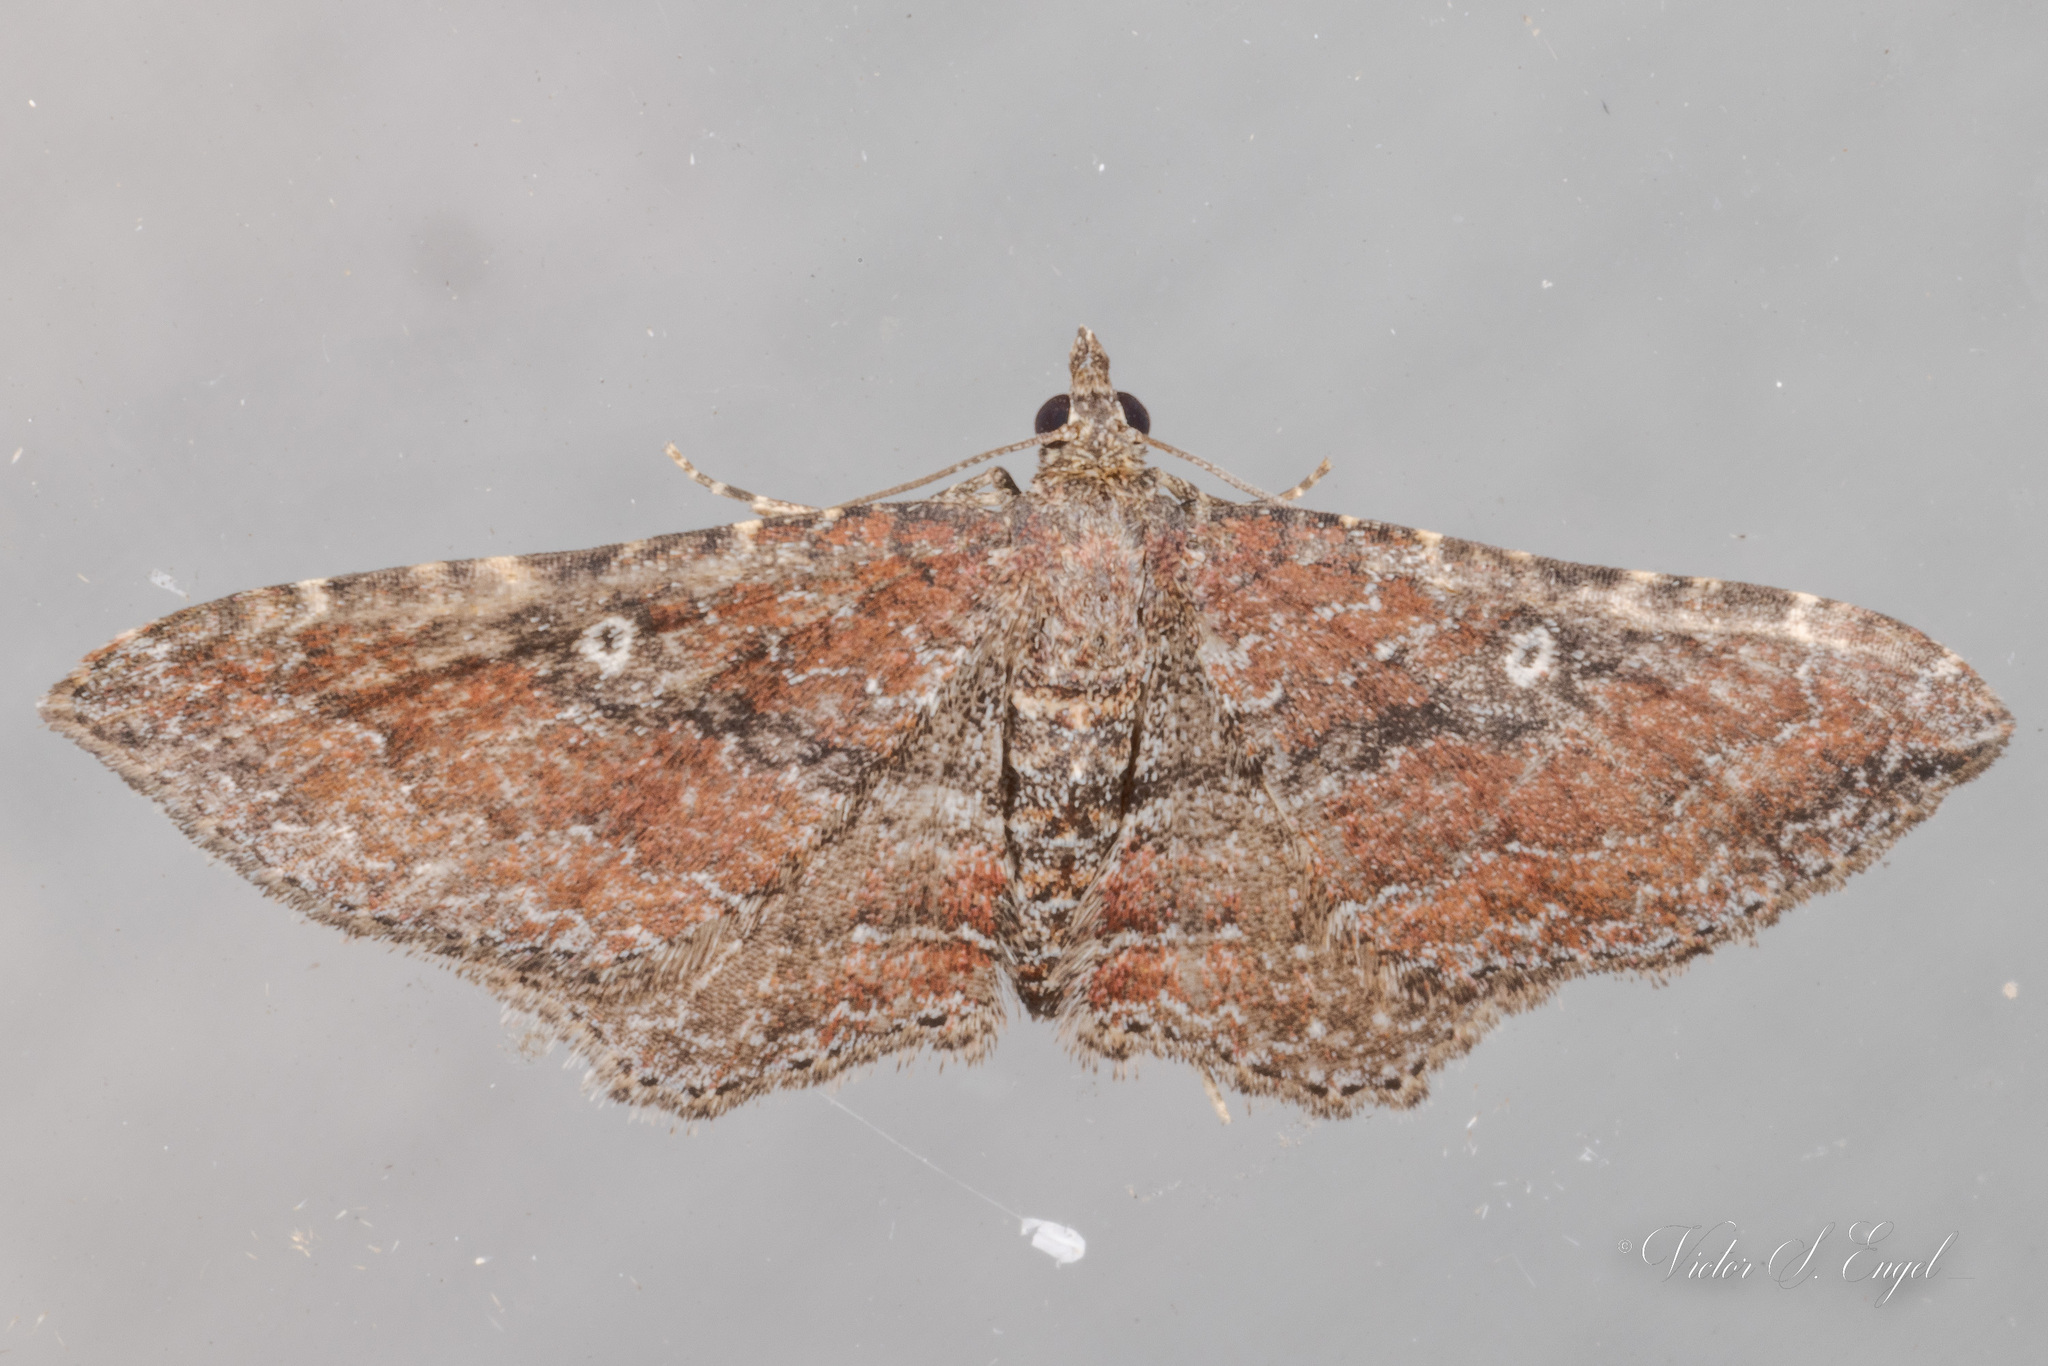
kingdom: Animalia
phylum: Arthropoda
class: Insecta
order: Lepidoptera
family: Geometridae
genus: Orthonama
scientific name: Orthonama obstipata
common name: The gem
